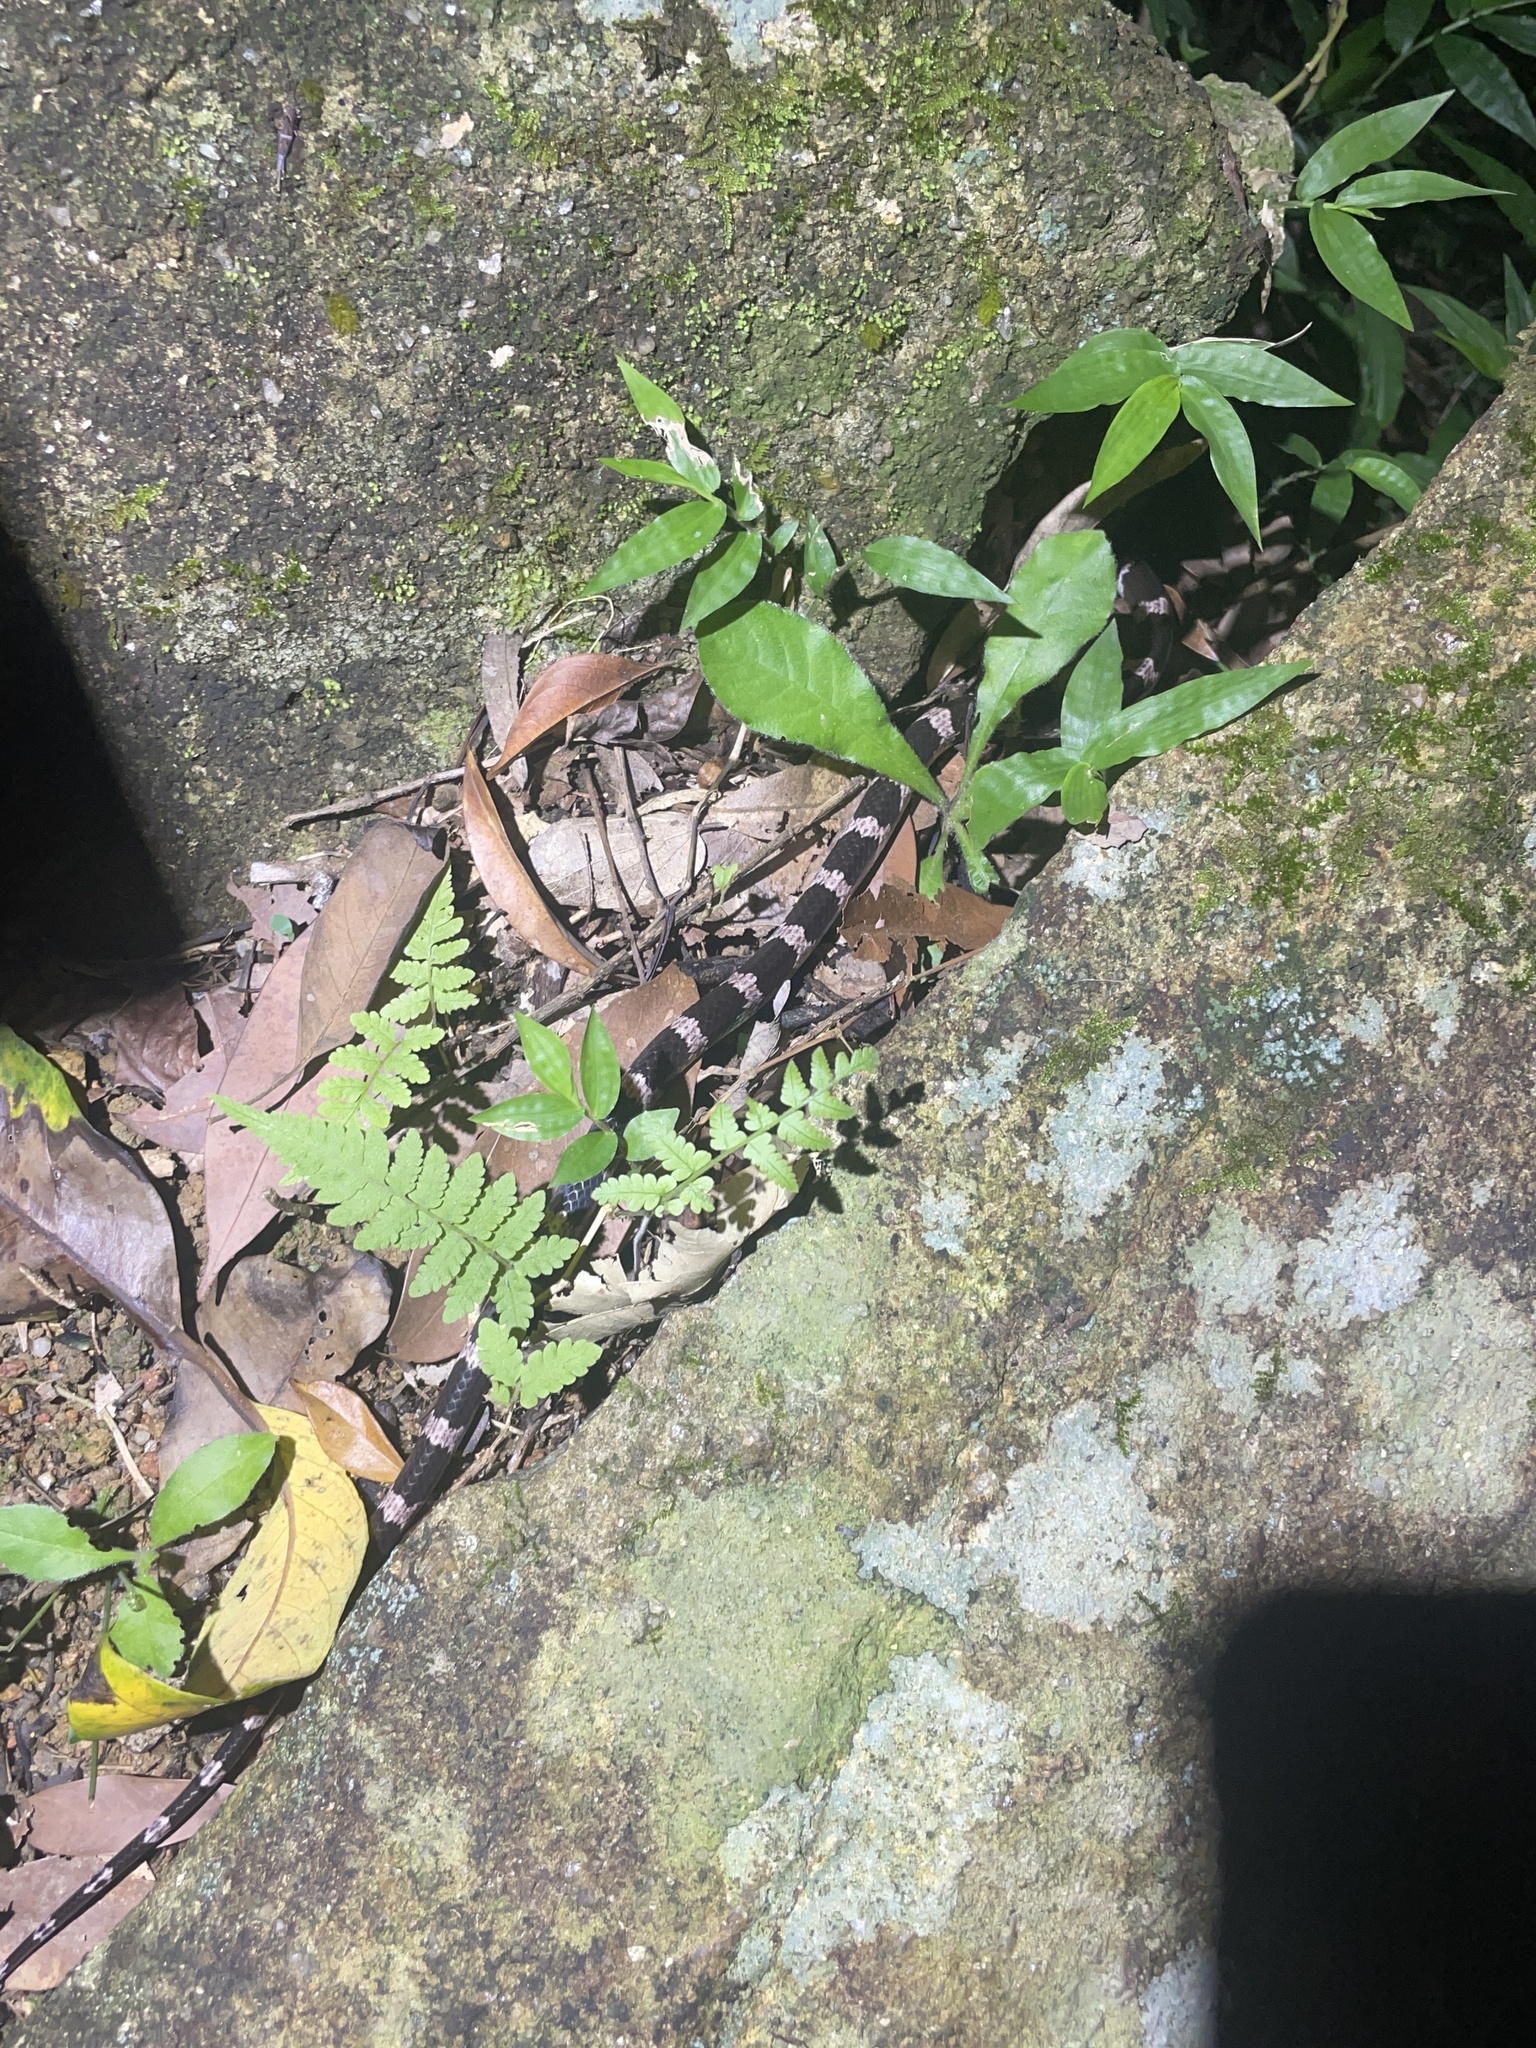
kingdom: Animalia
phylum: Chordata
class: Squamata
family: Colubridae
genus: Lycodon
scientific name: Lycodon futsingensis
